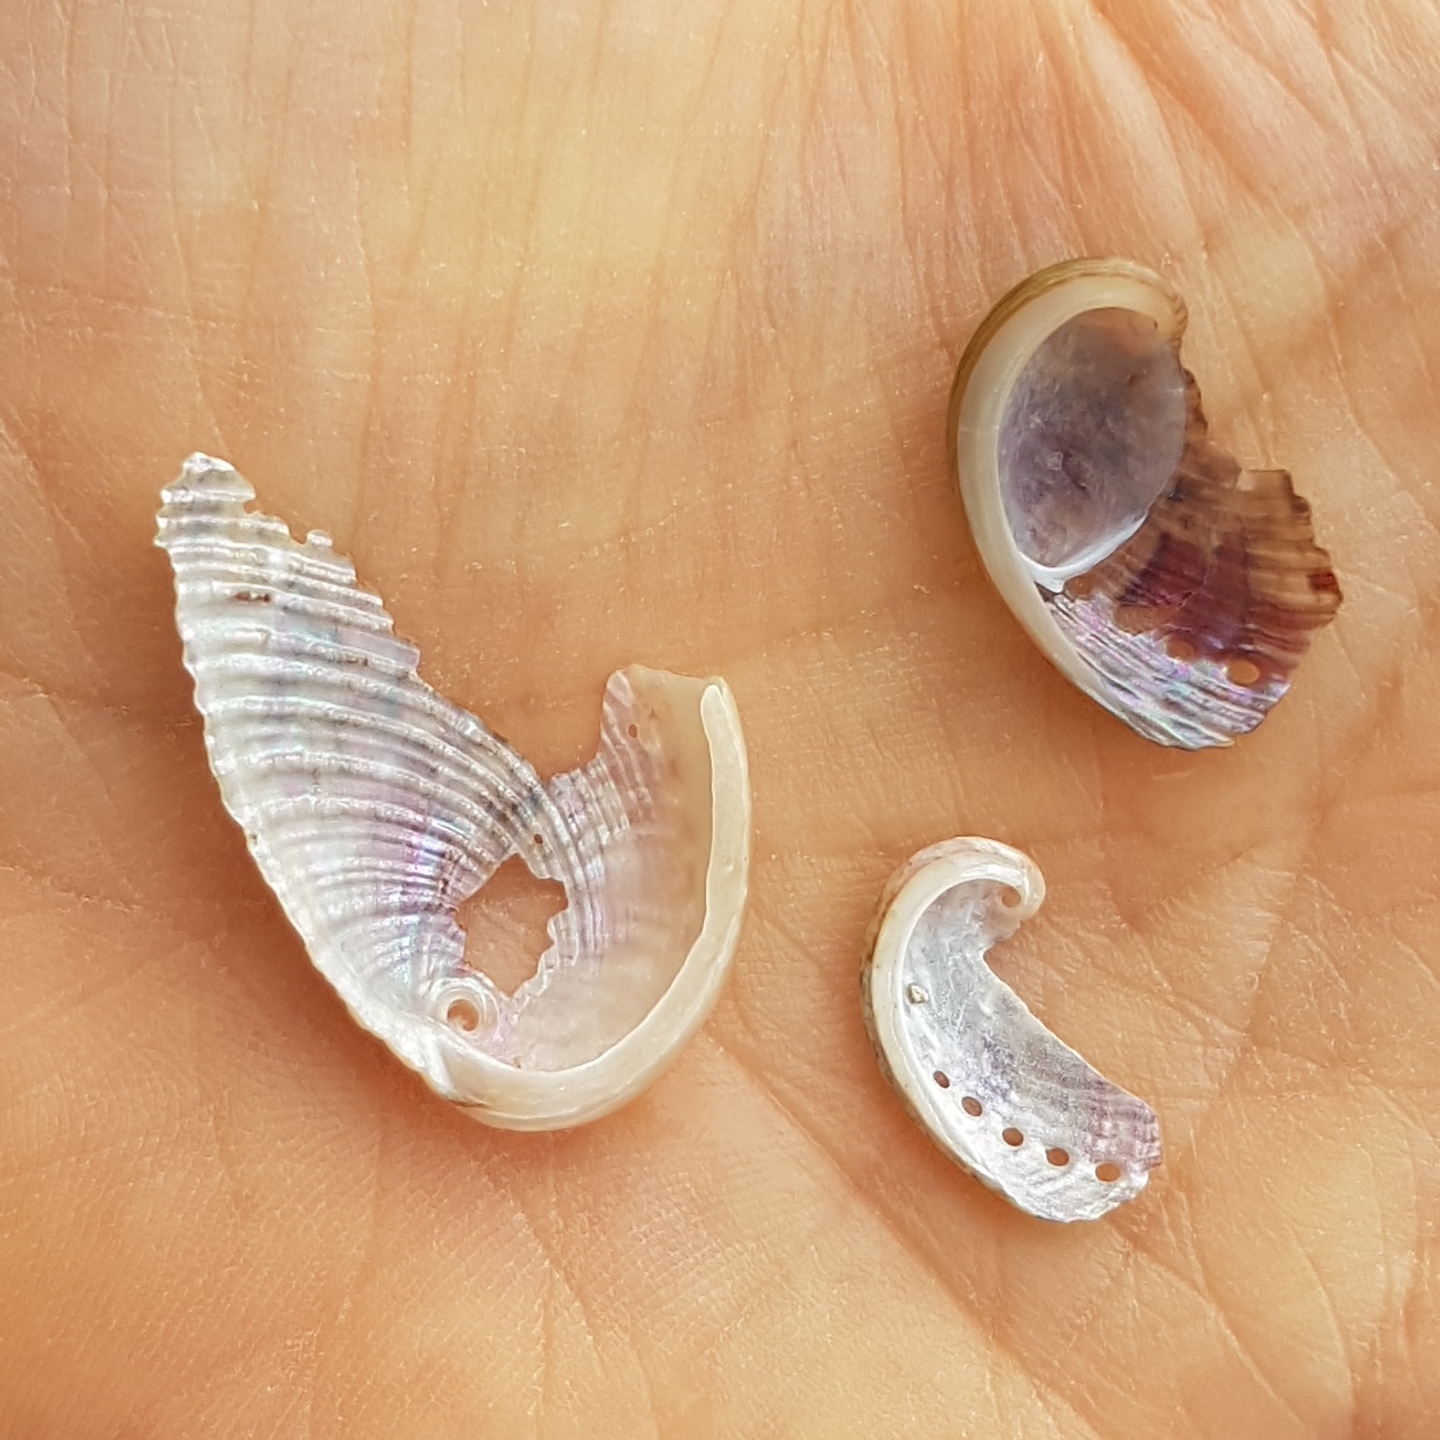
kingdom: Animalia
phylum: Mollusca
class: Gastropoda
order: Lepetellida
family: Haliotidae
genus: Haliotis
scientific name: Haliotis tuberculata
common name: Green ormer
